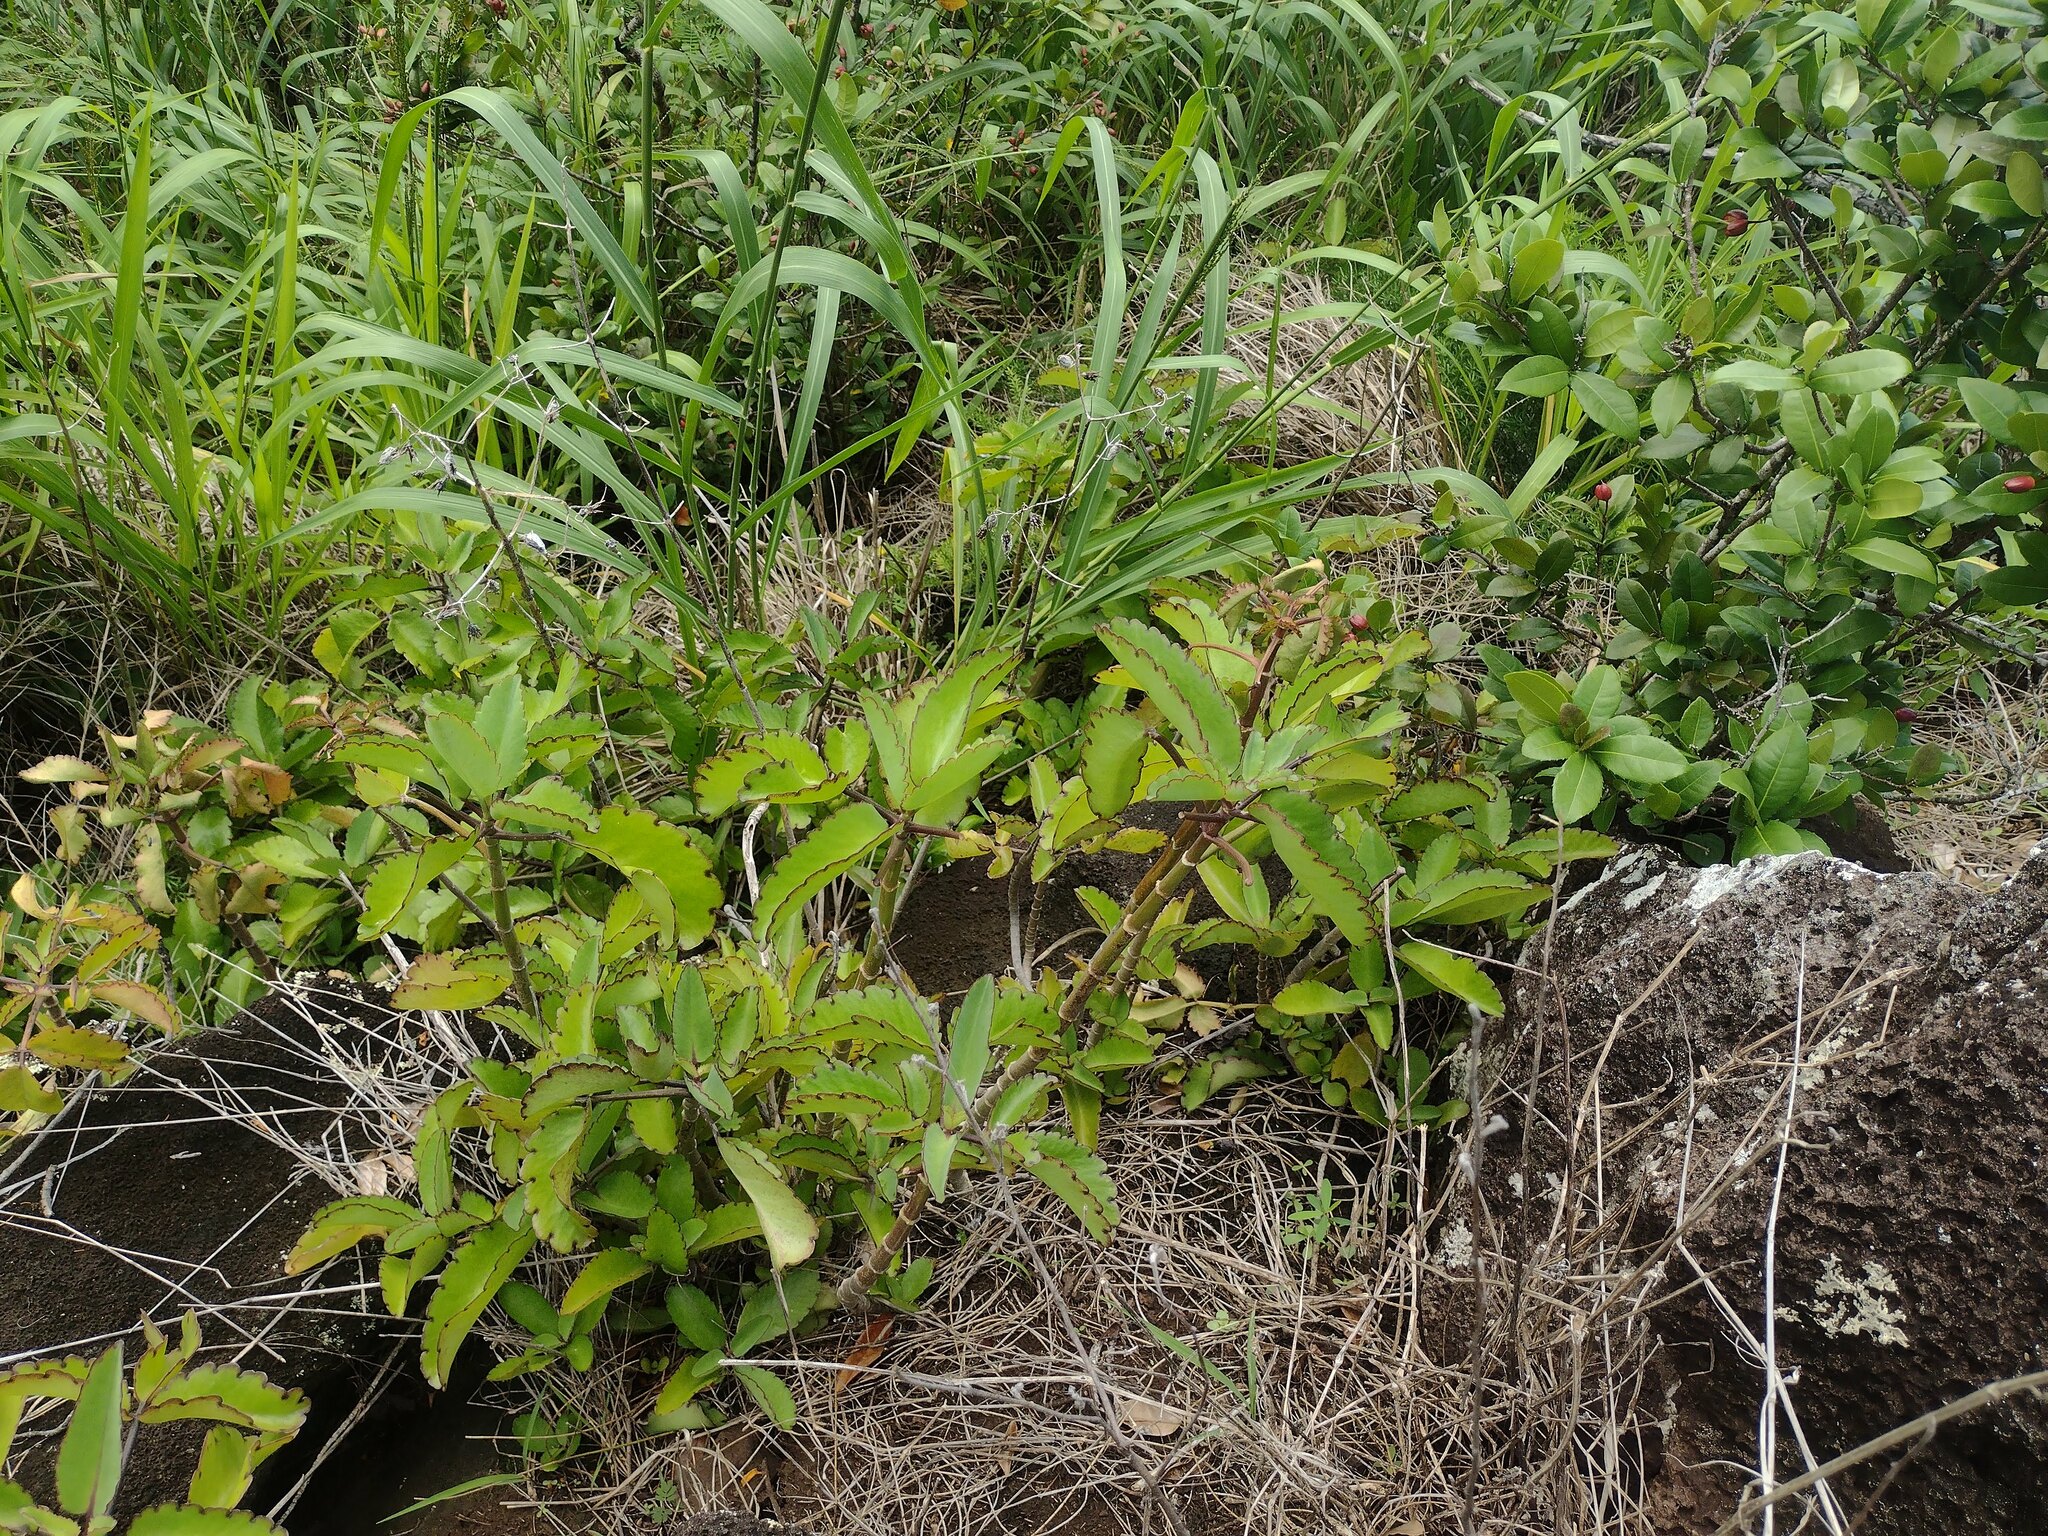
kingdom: Plantae
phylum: Tracheophyta
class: Magnoliopsida
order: Saxifragales
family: Crassulaceae
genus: Kalanchoe
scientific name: Kalanchoe pinnata
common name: Cathedral bells
